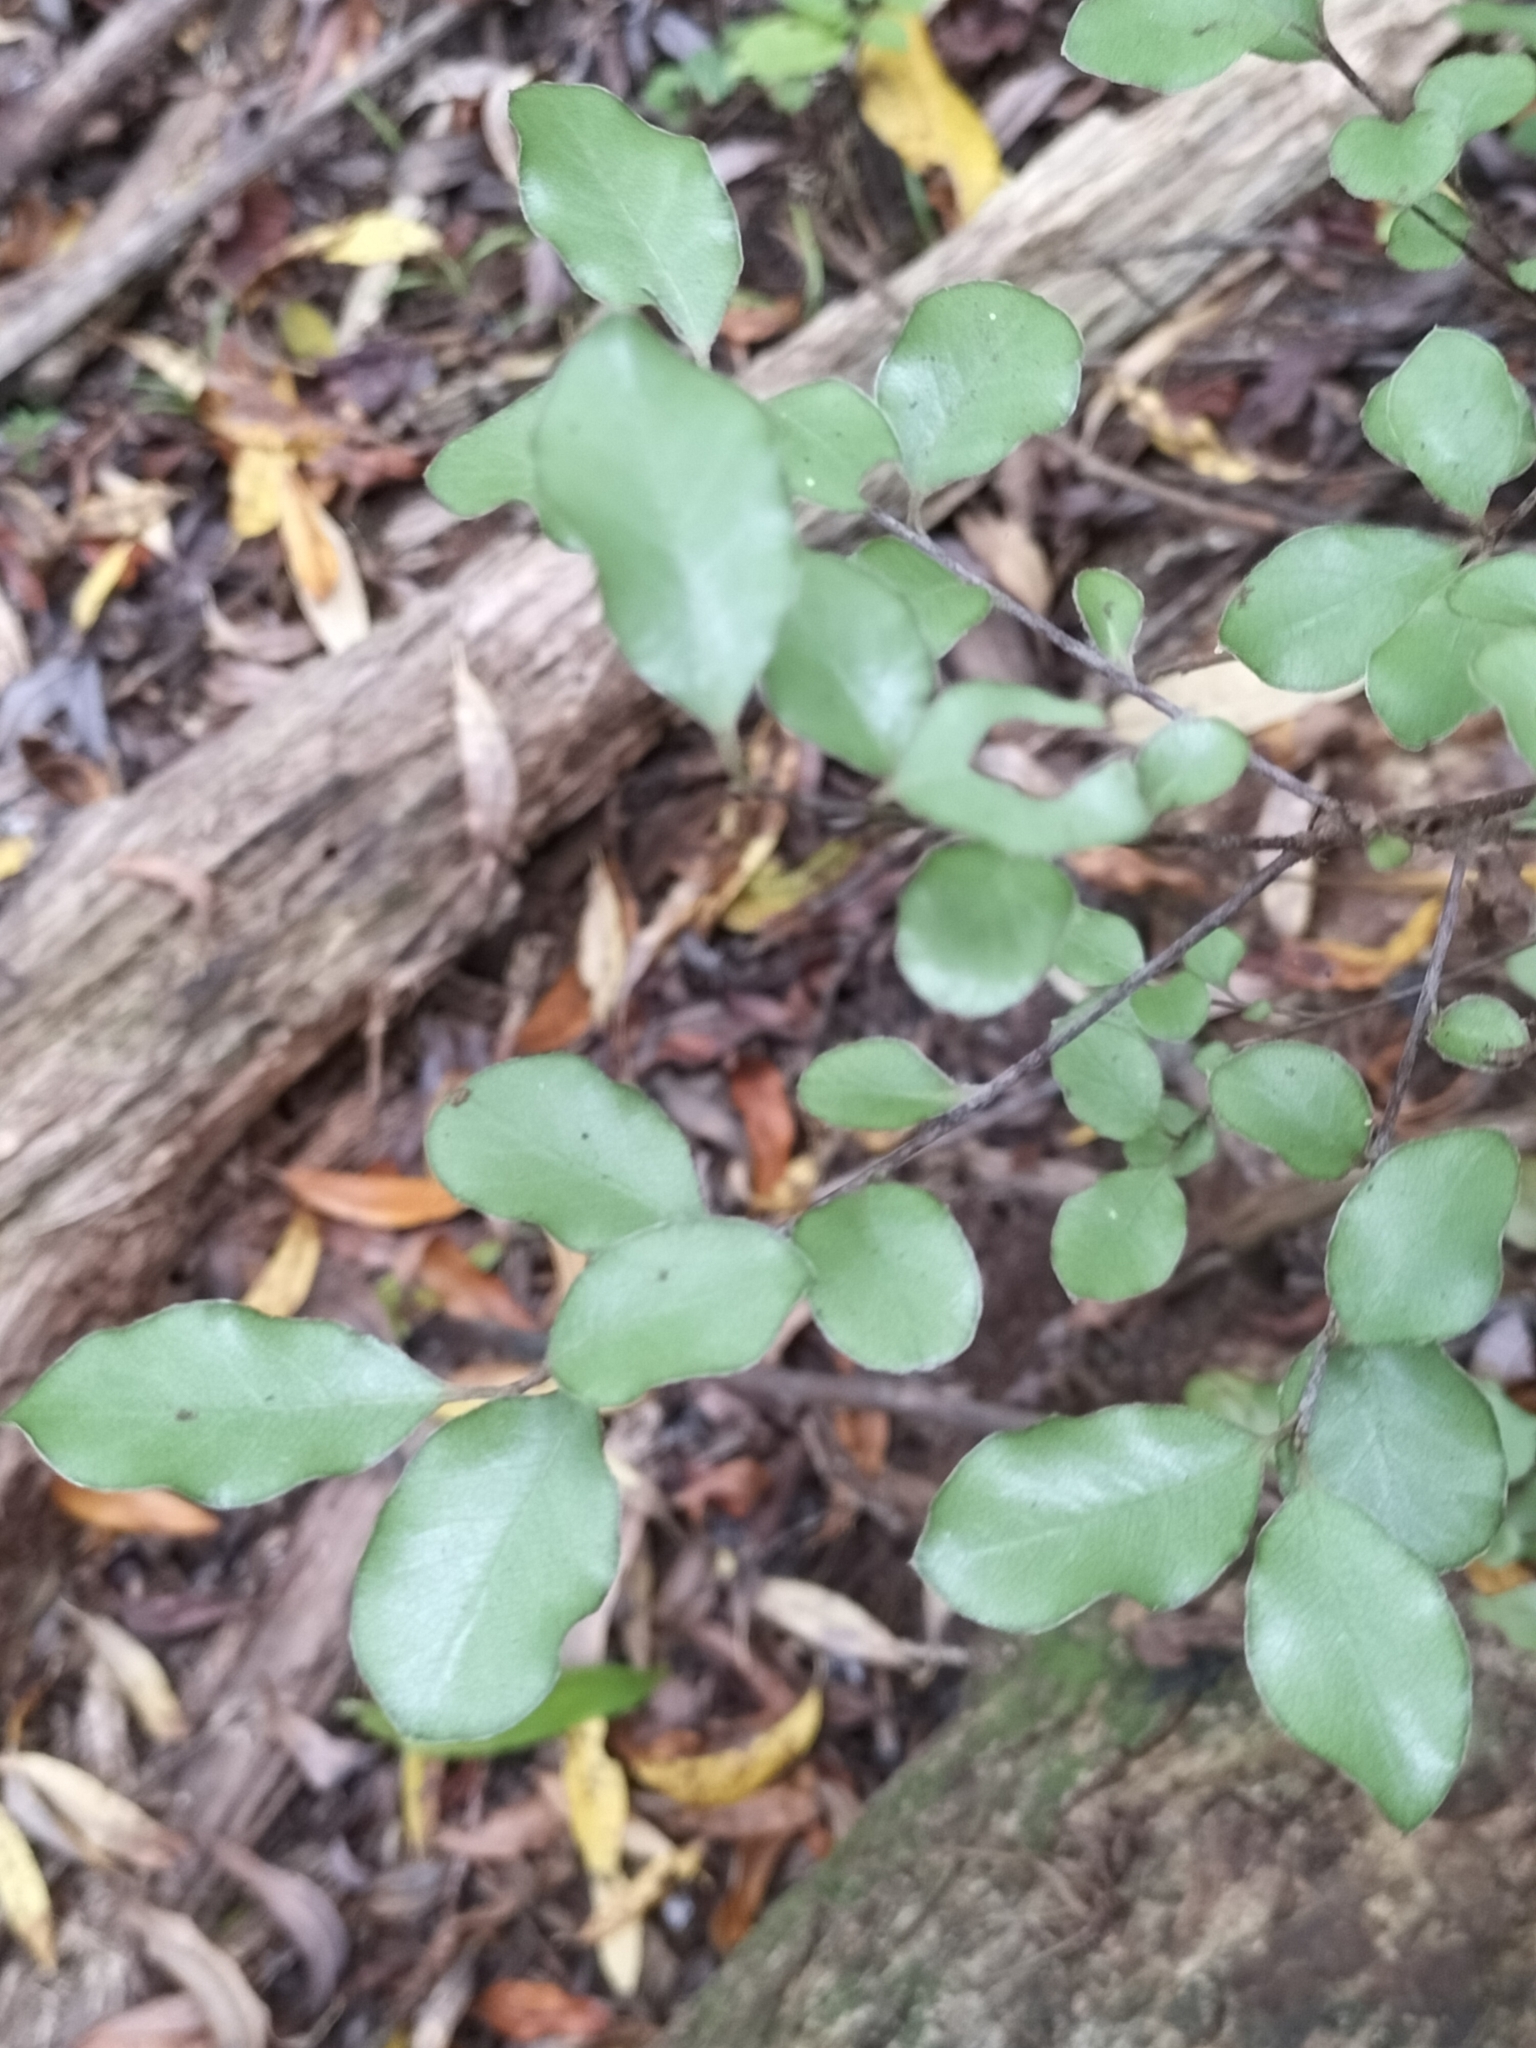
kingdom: Plantae
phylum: Tracheophyta
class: Magnoliopsida
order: Apiales
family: Pittosporaceae
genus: Pittosporum
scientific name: Pittosporum tenuifolium
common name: Kohuhu
